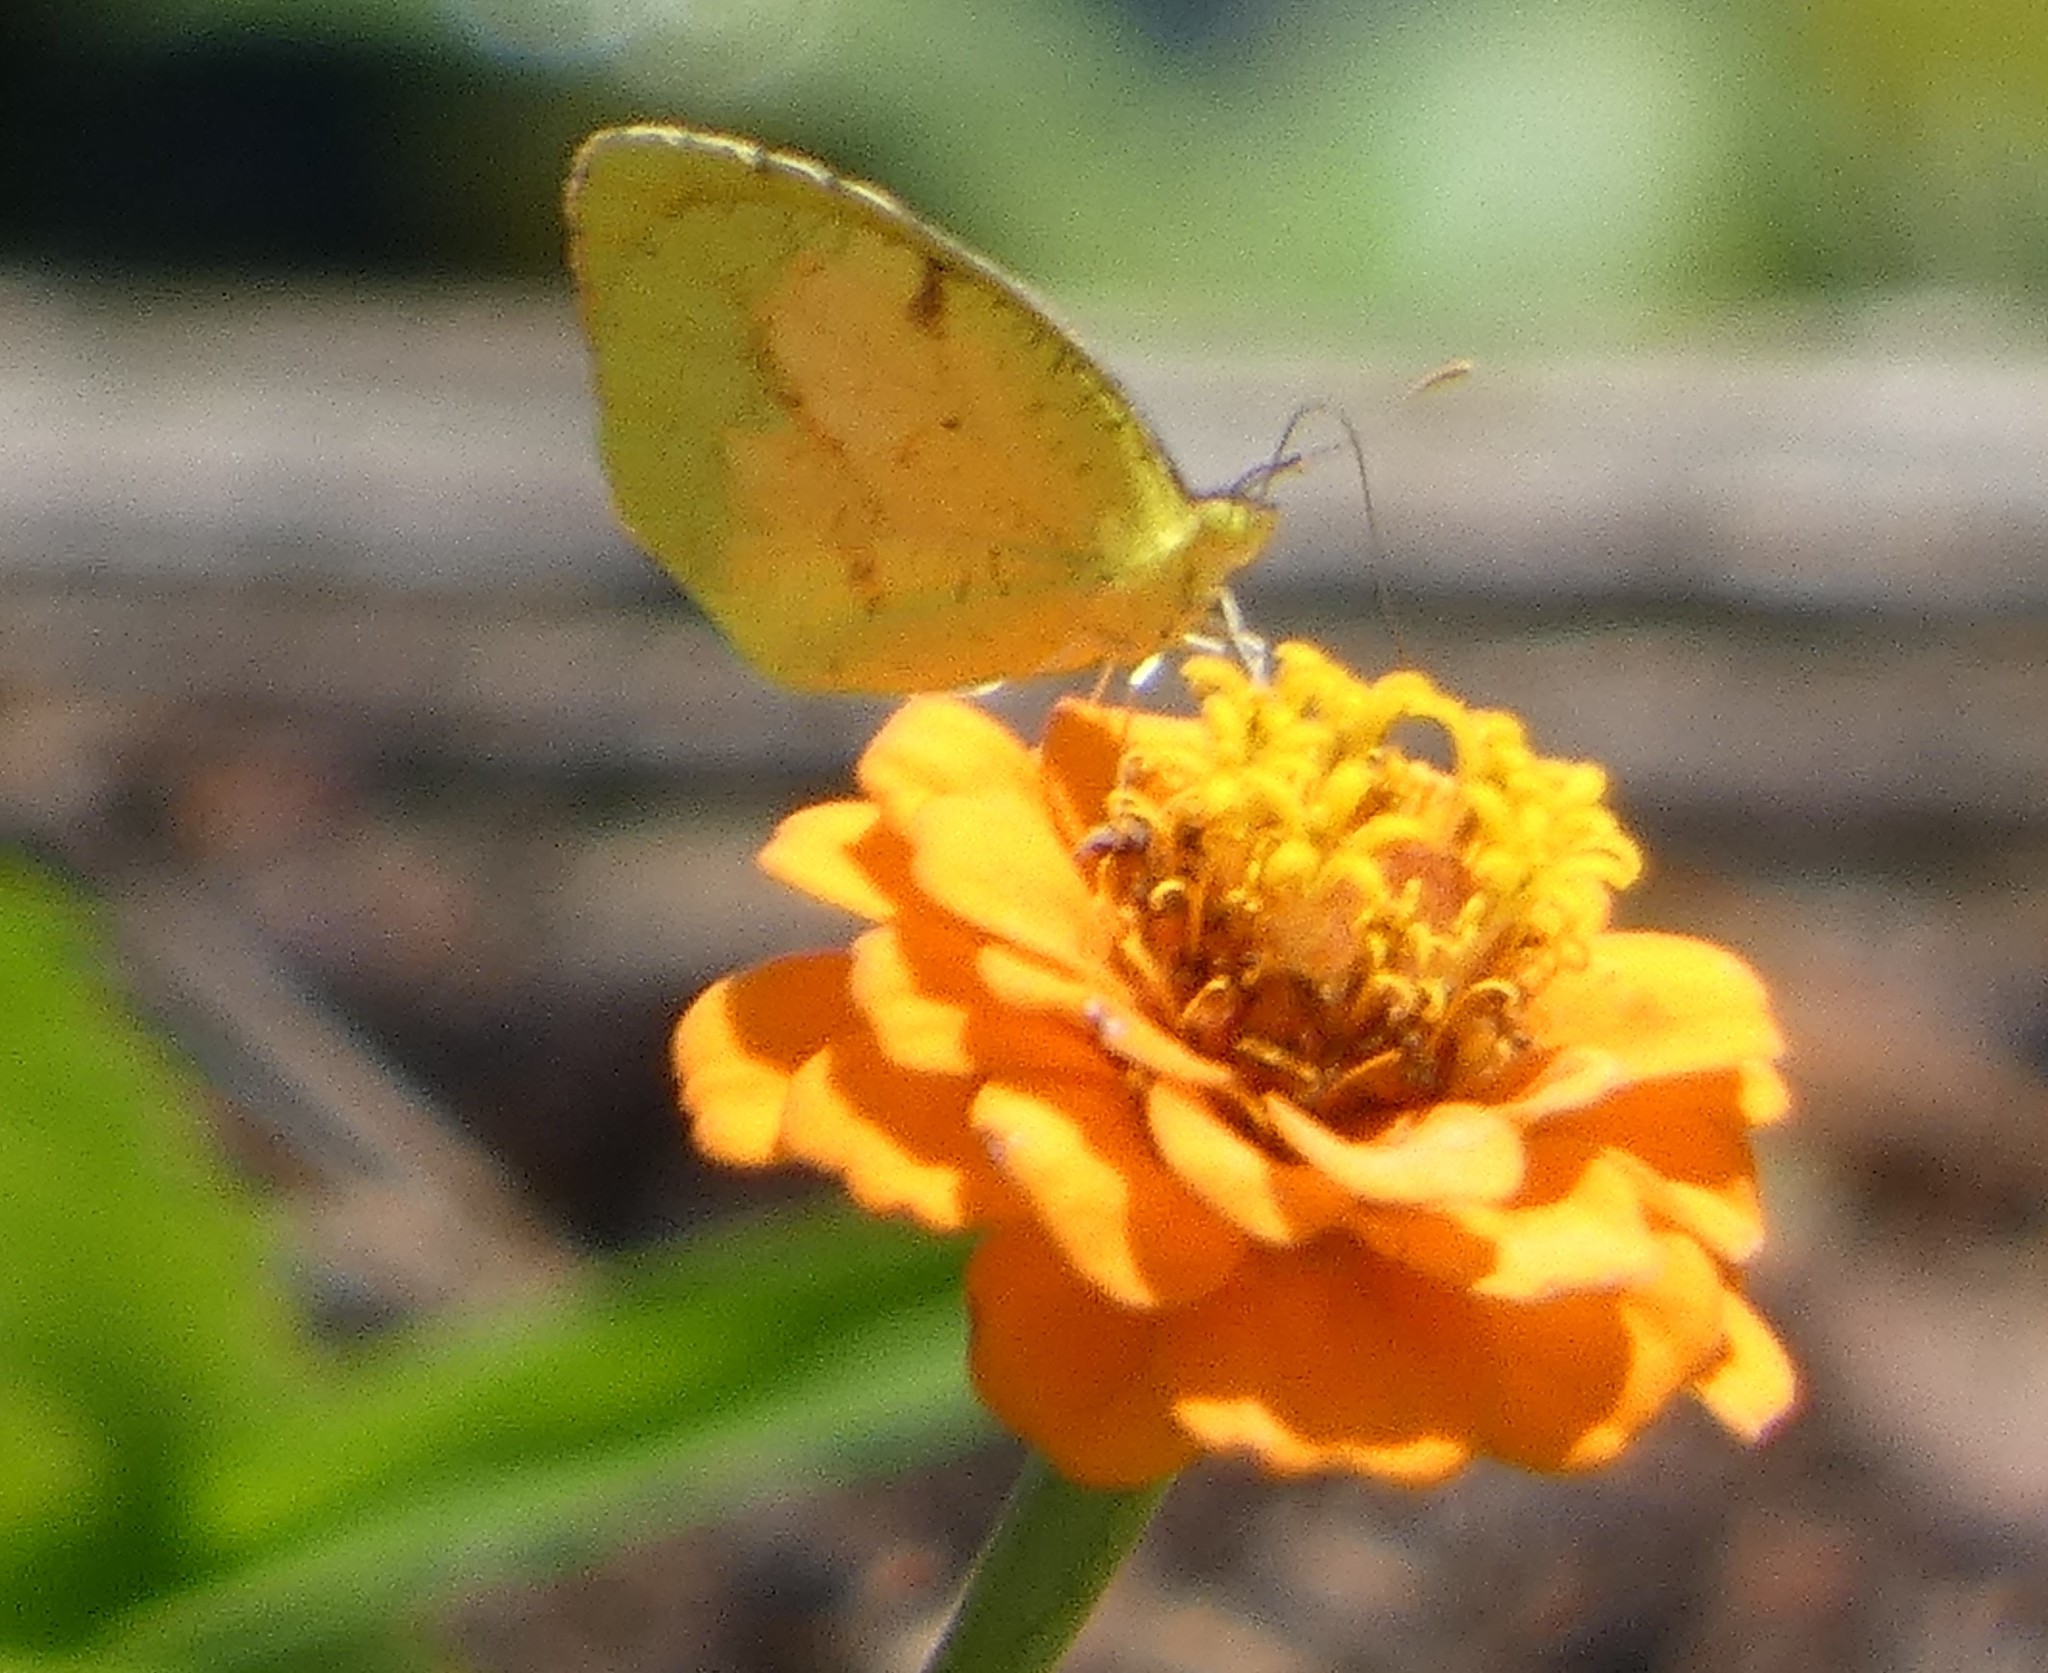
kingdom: Animalia
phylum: Arthropoda
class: Insecta
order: Lepidoptera
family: Pieridae
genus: Abaeis
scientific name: Abaeis nicippe
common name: Sleepy orange
